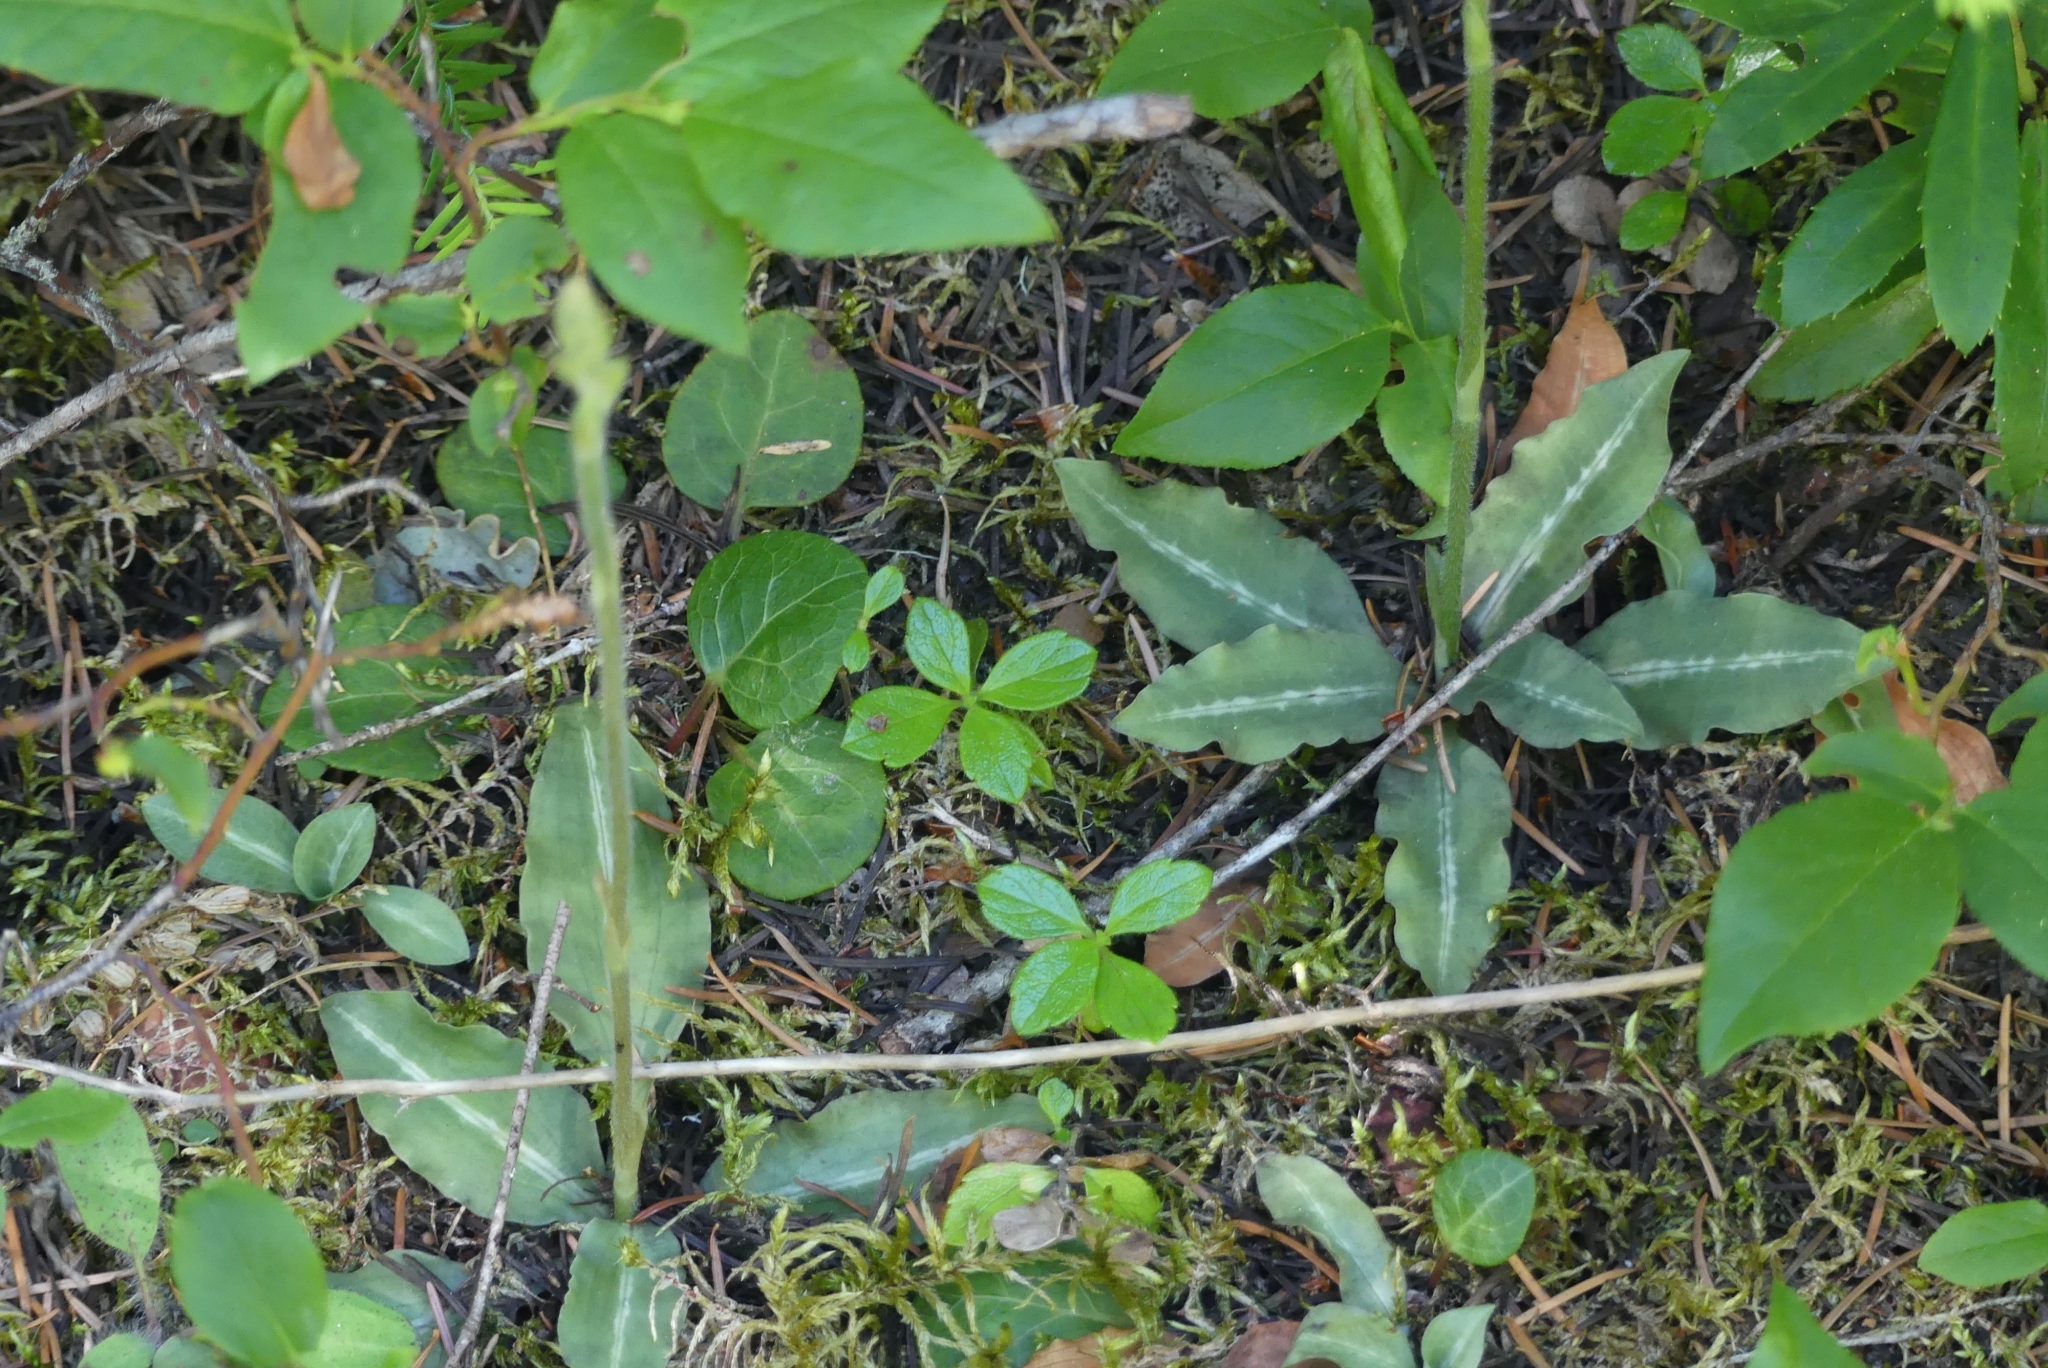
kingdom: Plantae
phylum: Tracheophyta
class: Liliopsida
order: Asparagales
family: Orchidaceae
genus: Goodyera
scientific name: Goodyera oblongifolia
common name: Giant rattlesnake-plantain
